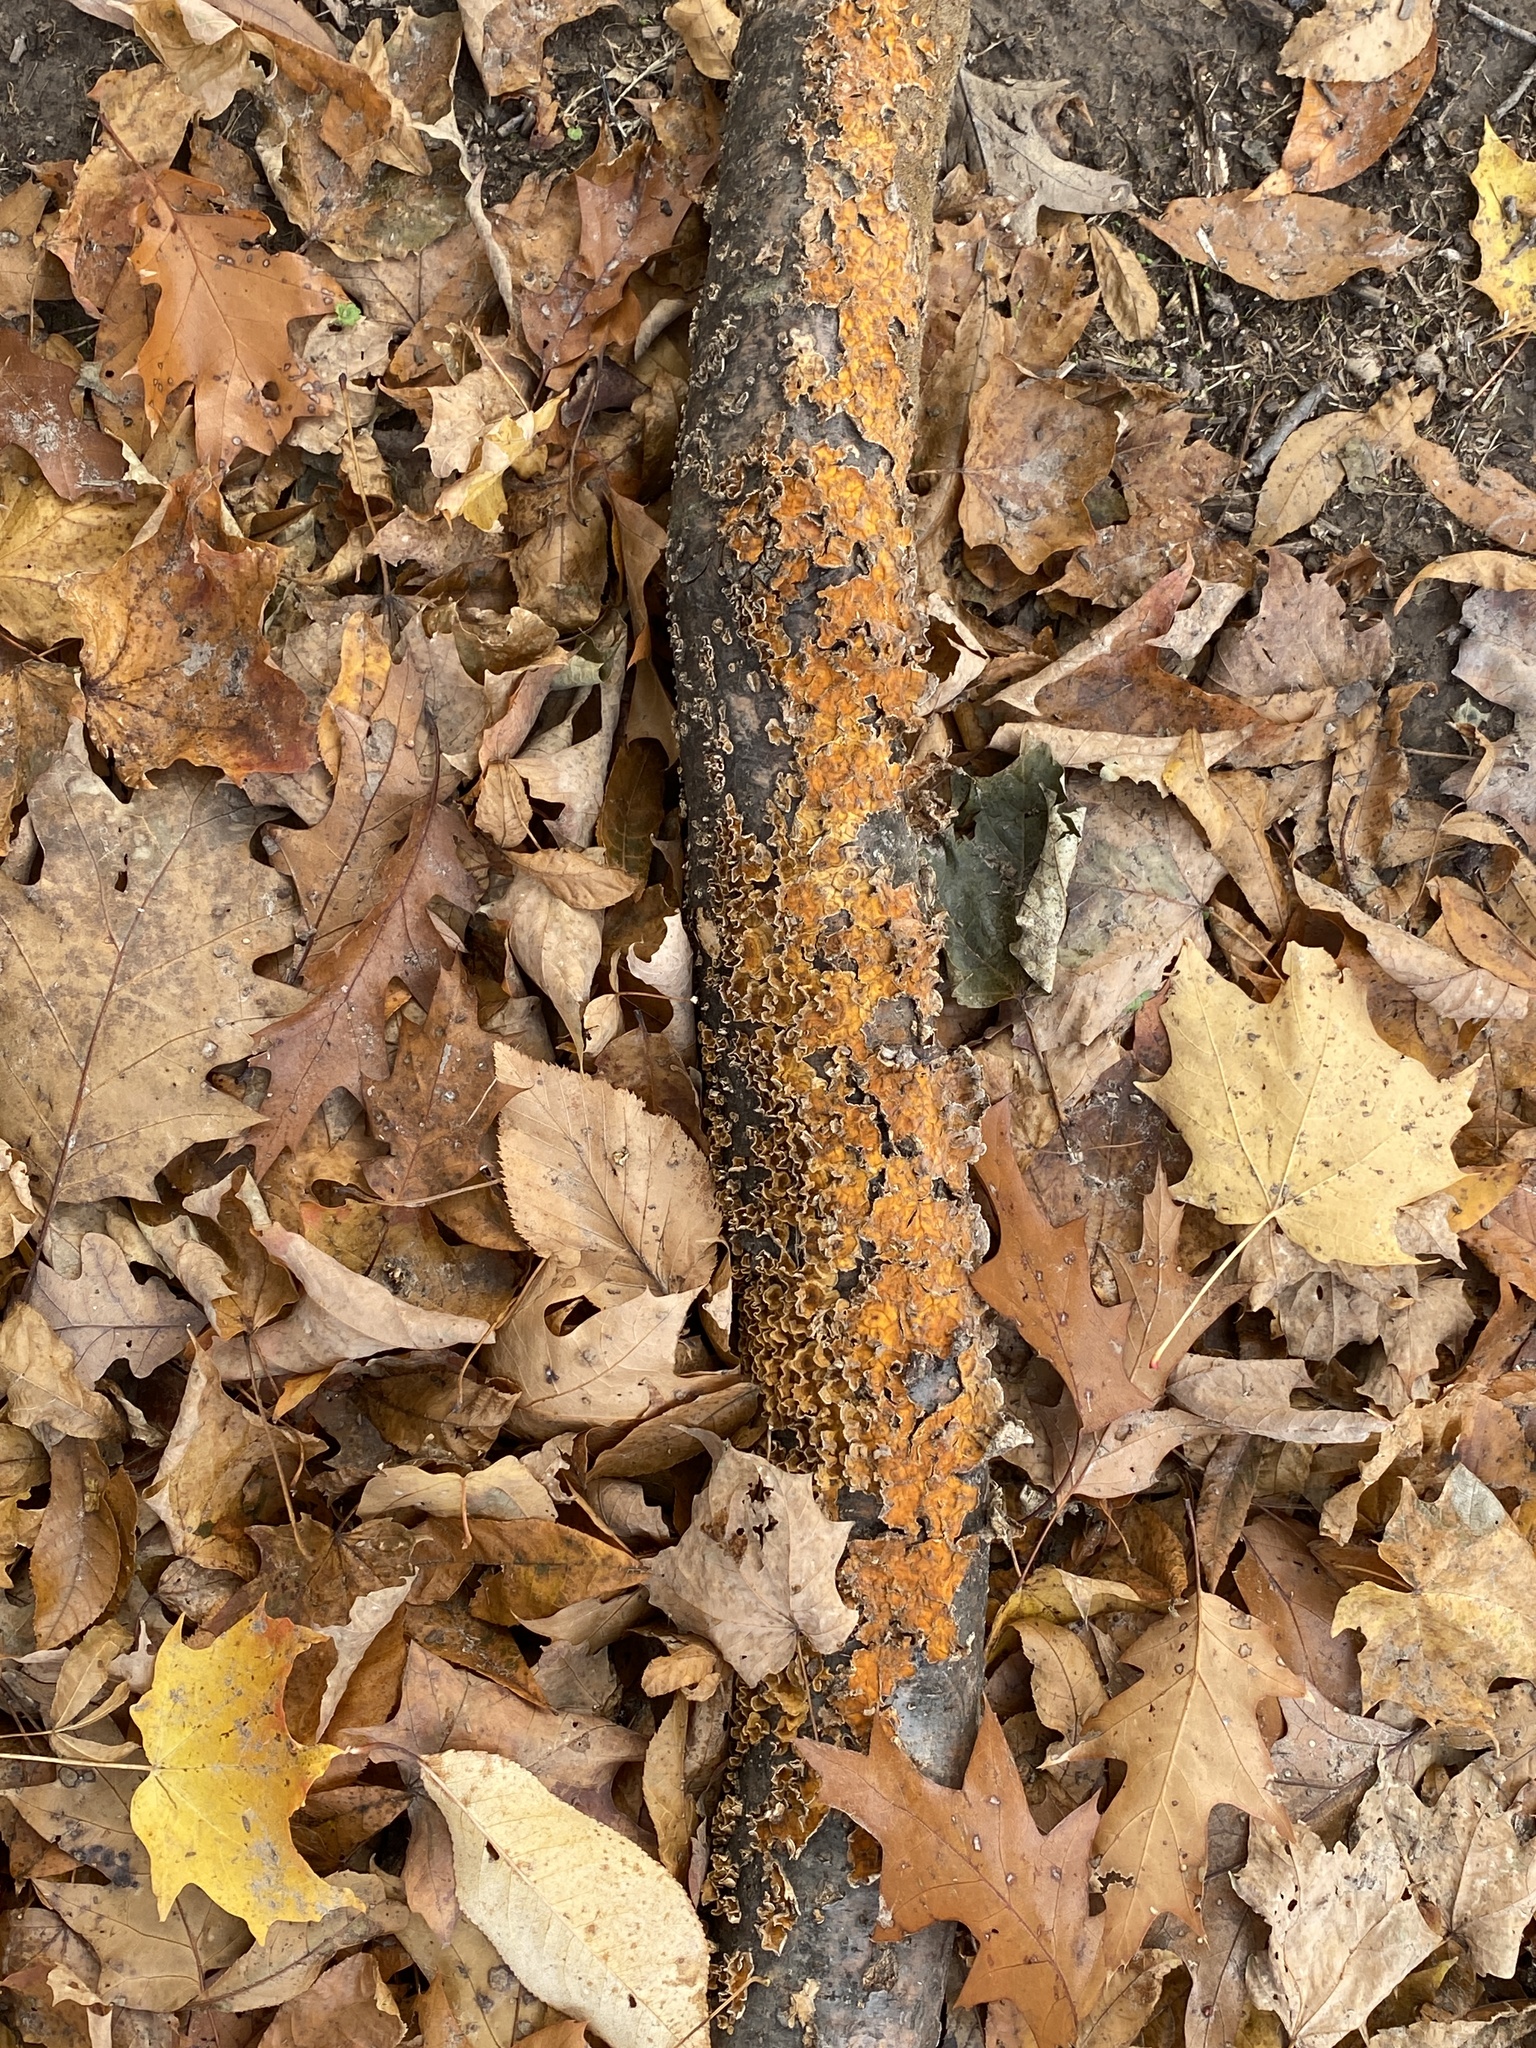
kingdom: Fungi
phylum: Basidiomycota
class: Agaricomycetes
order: Russulales
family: Stereaceae
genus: Stereum
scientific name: Stereum complicatum
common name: Crowded parchment
